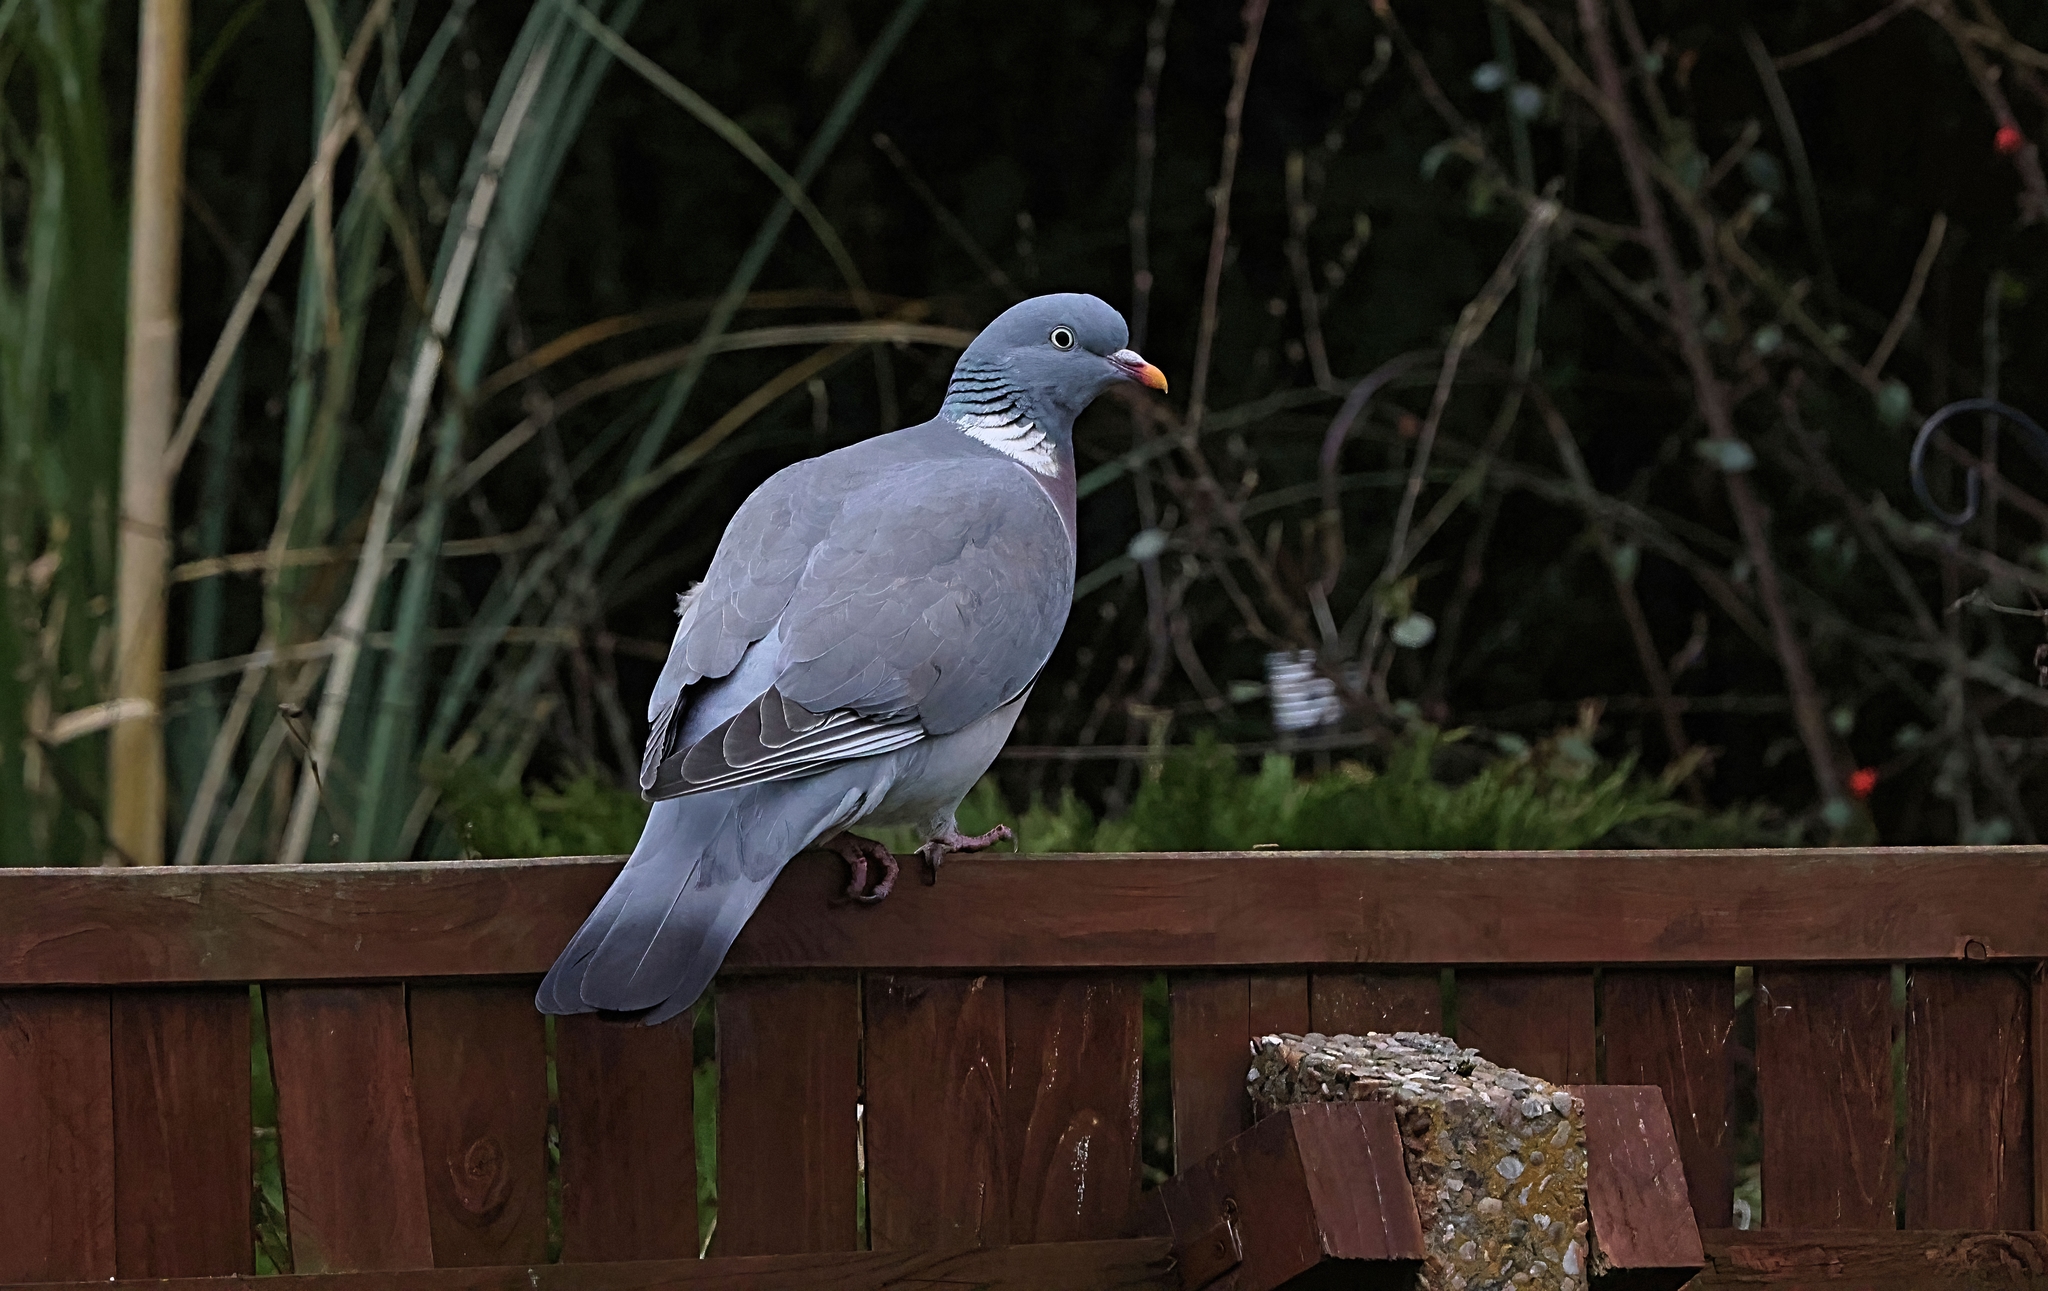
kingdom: Animalia
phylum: Chordata
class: Aves
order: Columbiformes
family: Columbidae
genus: Columba
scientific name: Columba palumbus
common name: Common wood pigeon
